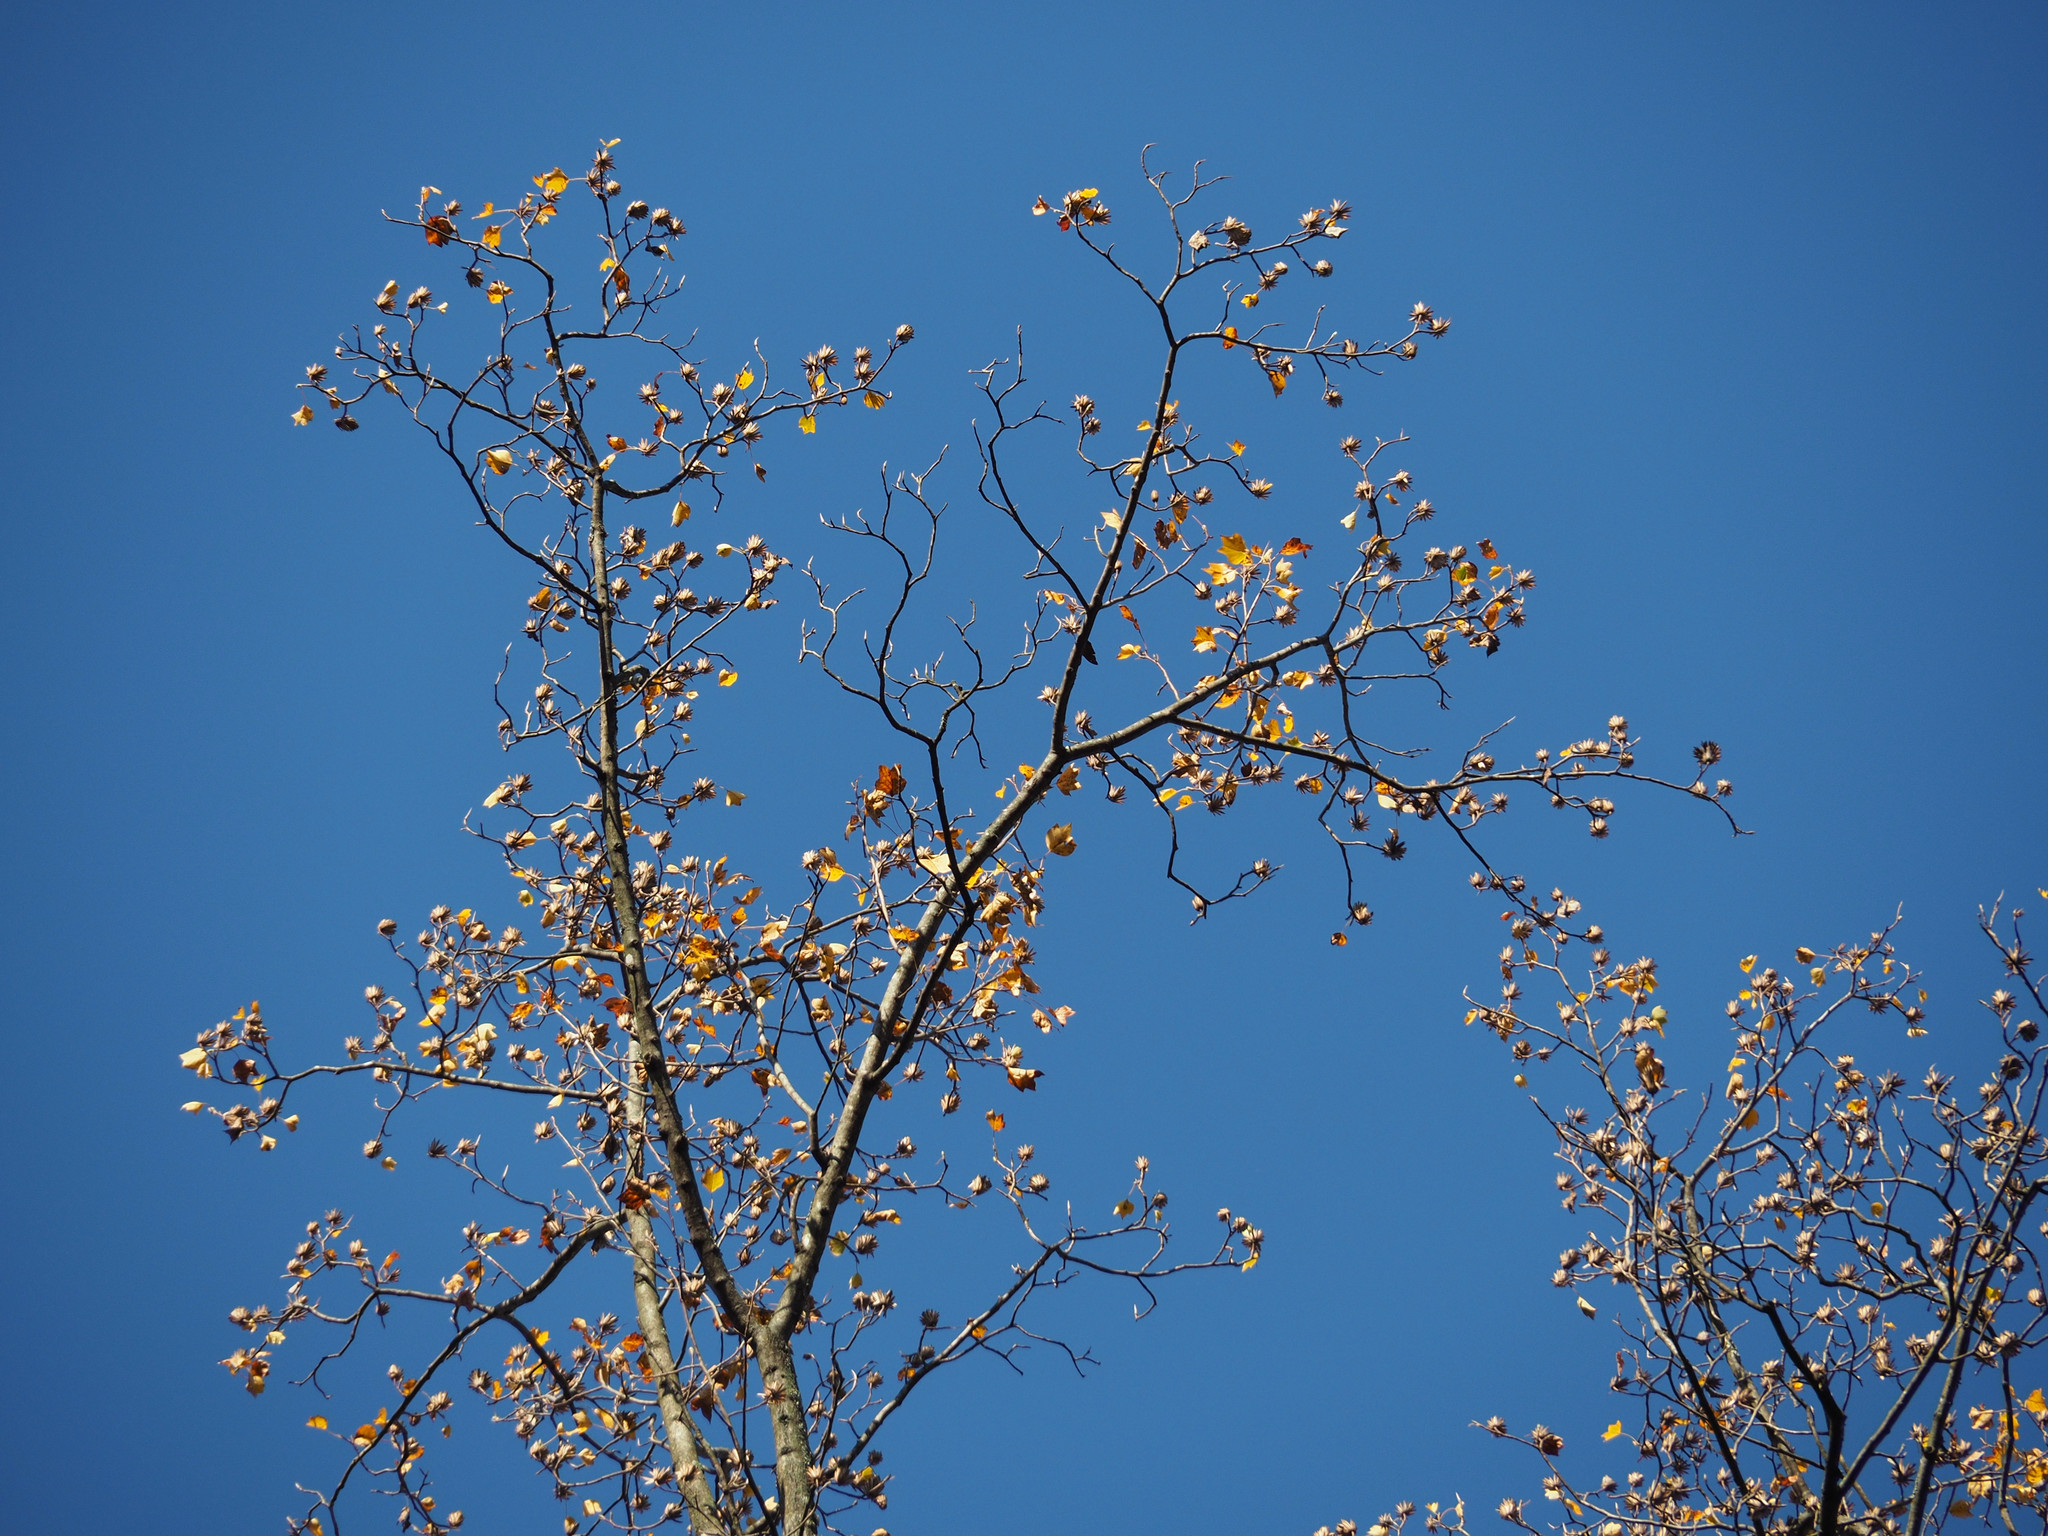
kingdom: Plantae
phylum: Tracheophyta
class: Magnoliopsida
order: Magnoliales
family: Magnoliaceae
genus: Liriodendron
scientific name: Liriodendron tulipifera
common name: Tulip tree
